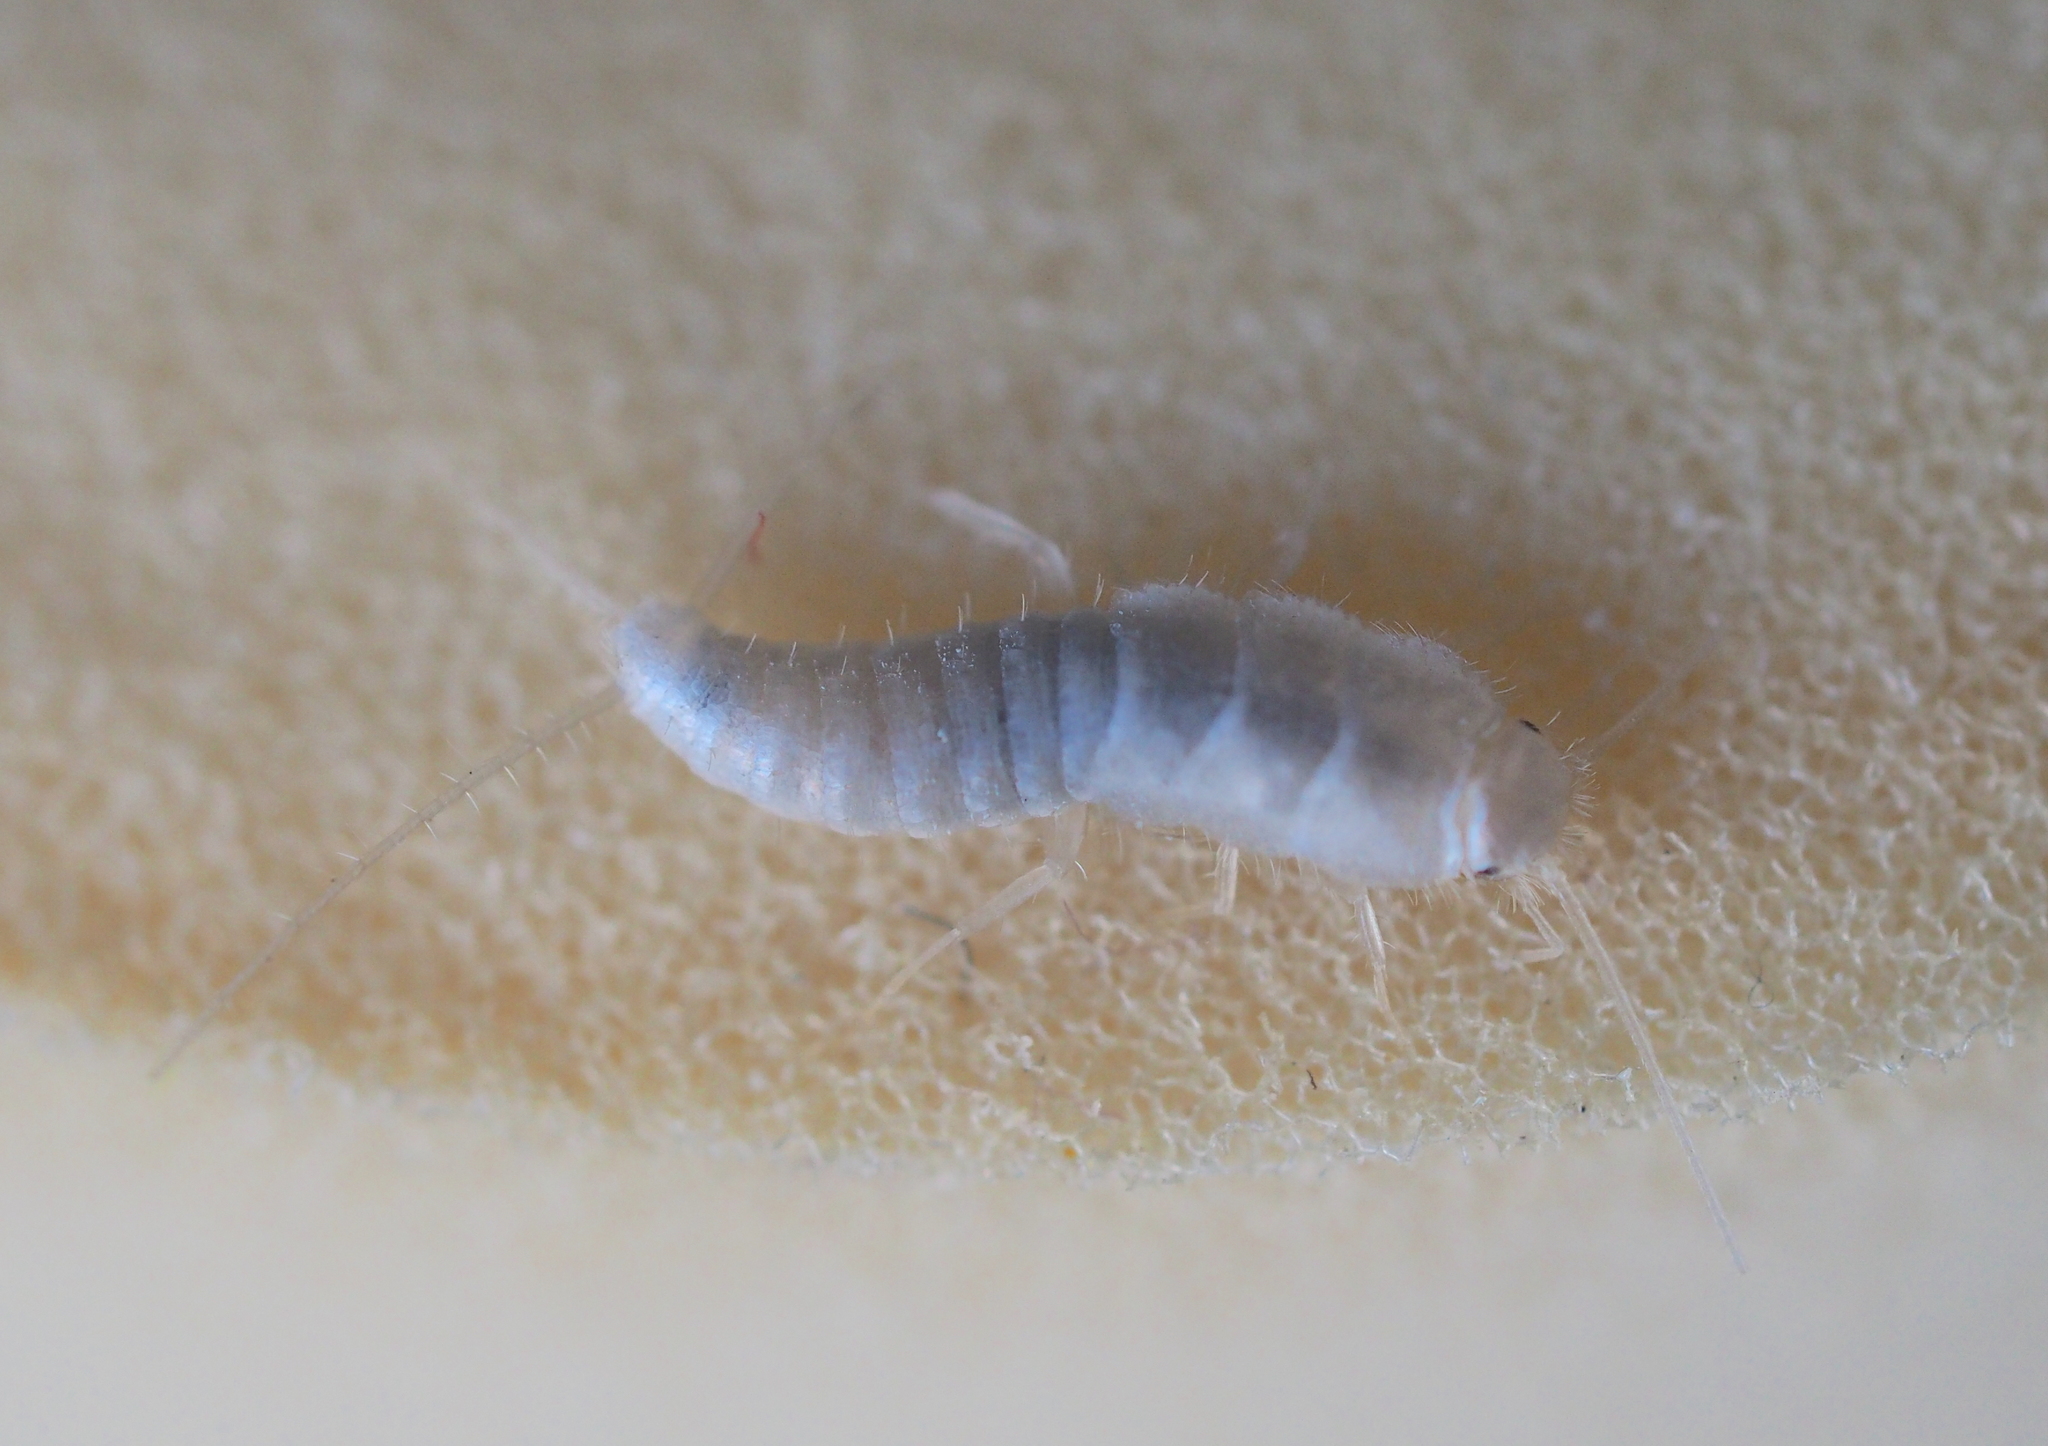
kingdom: Animalia
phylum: Arthropoda
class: Insecta
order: Zygentoma
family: Lepismatidae
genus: Ctenolepisma
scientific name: Ctenolepisma calvum
